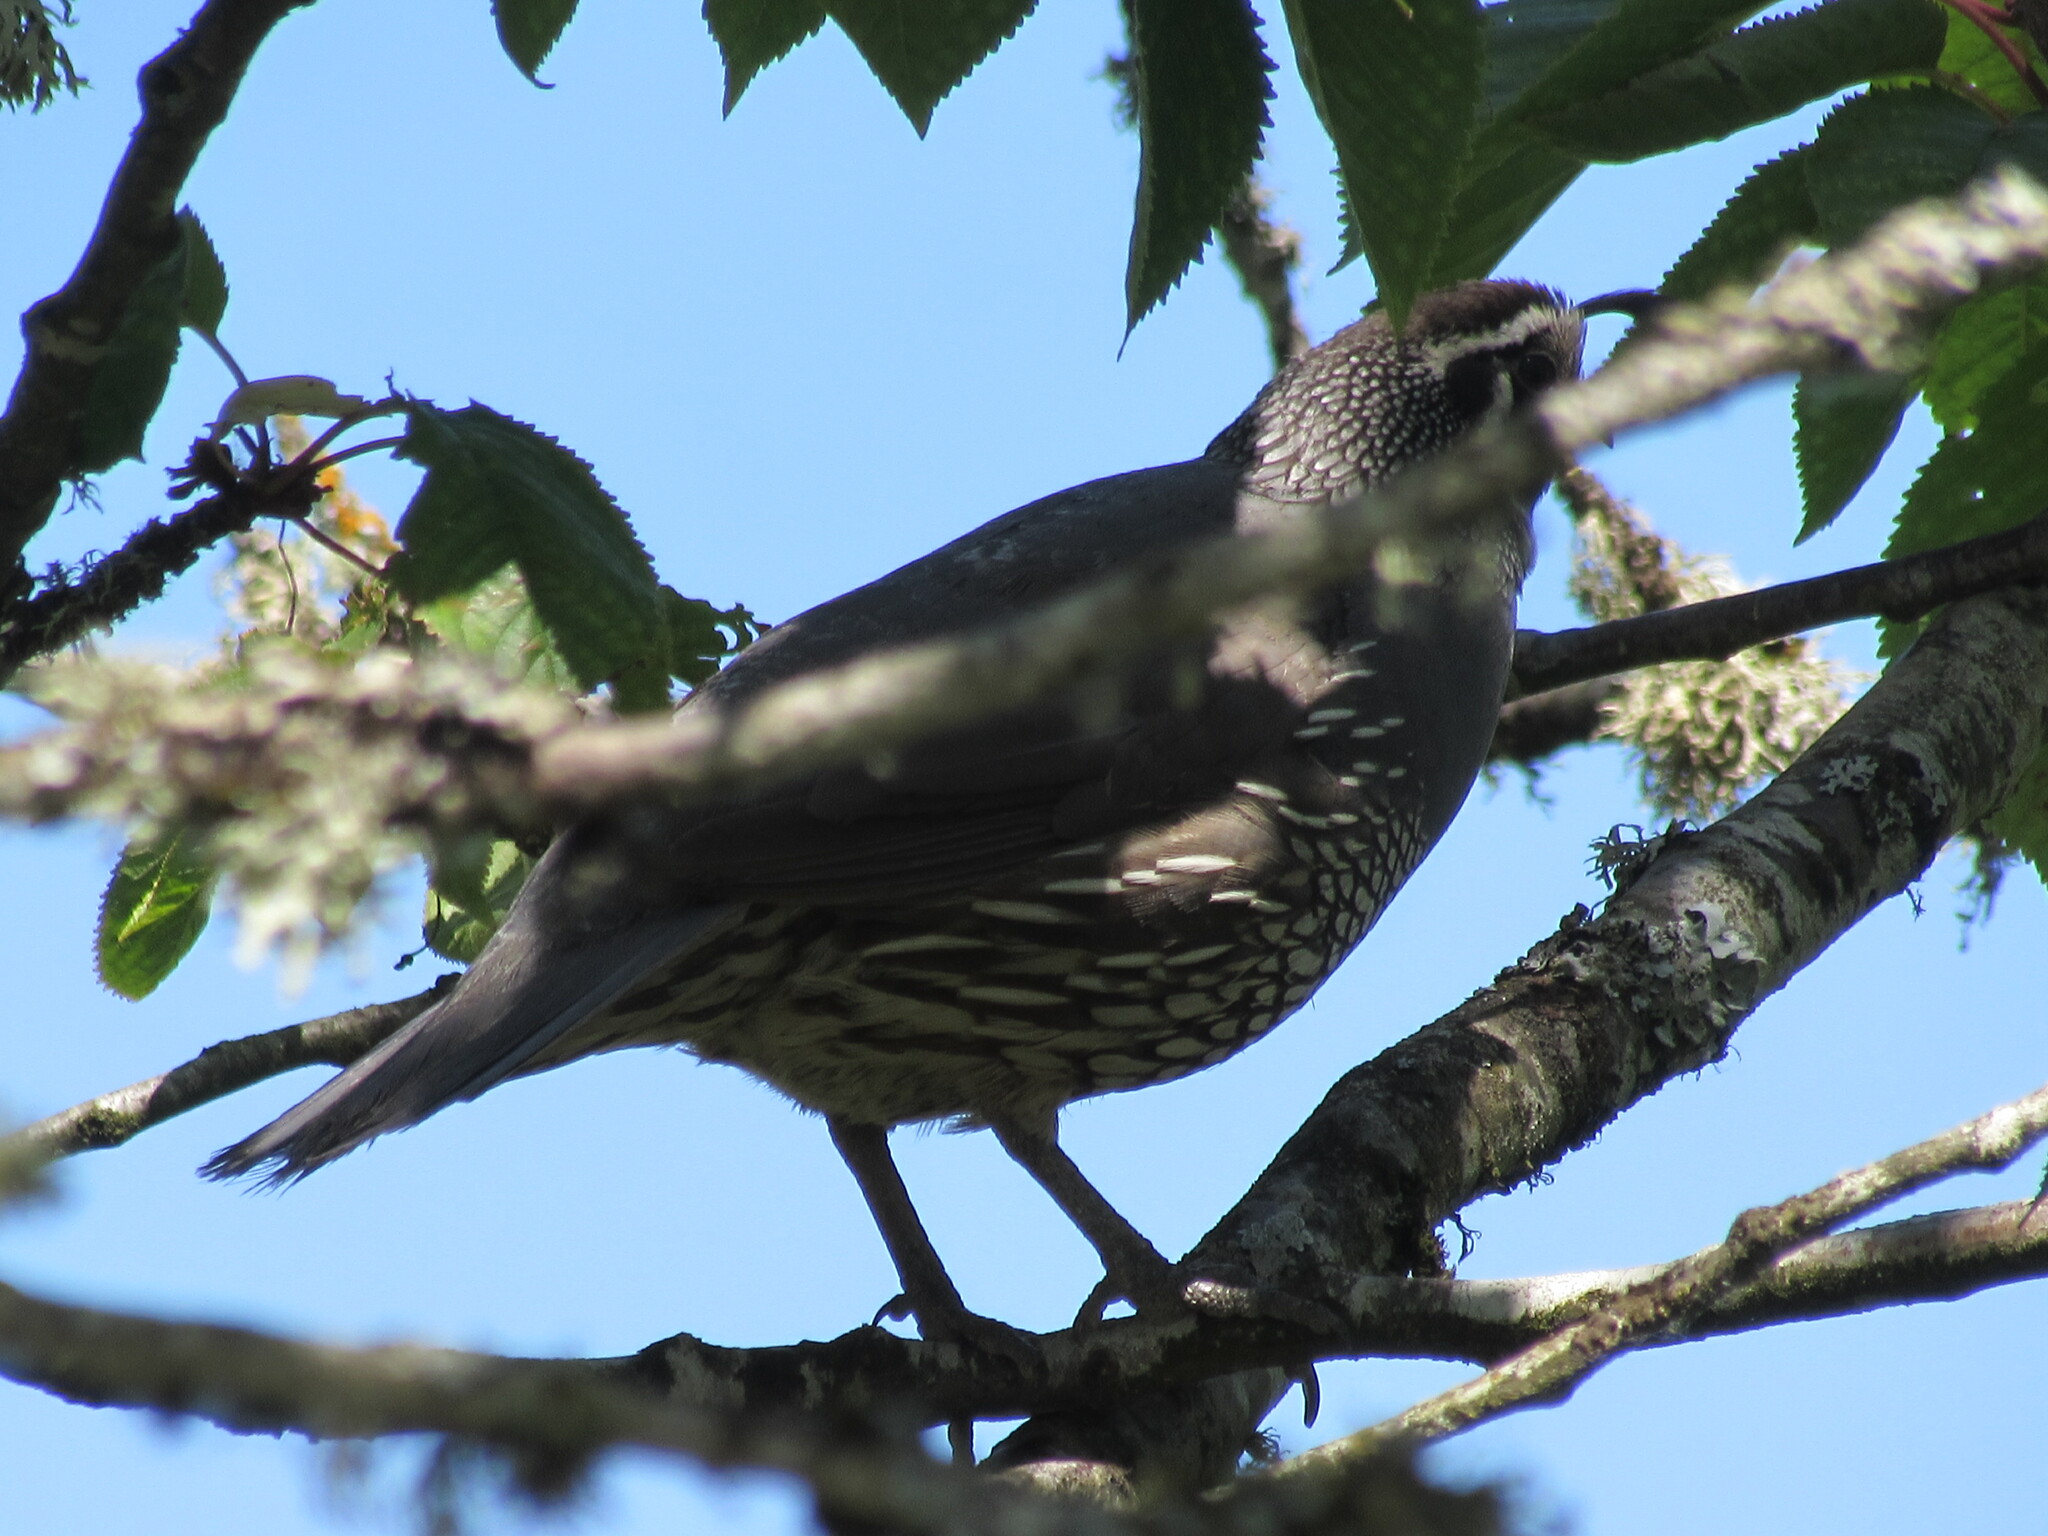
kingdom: Animalia
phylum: Chordata
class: Aves
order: Galliformes
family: Odontophoridae
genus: Callipepla
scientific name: Callipepla californica
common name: California quail
